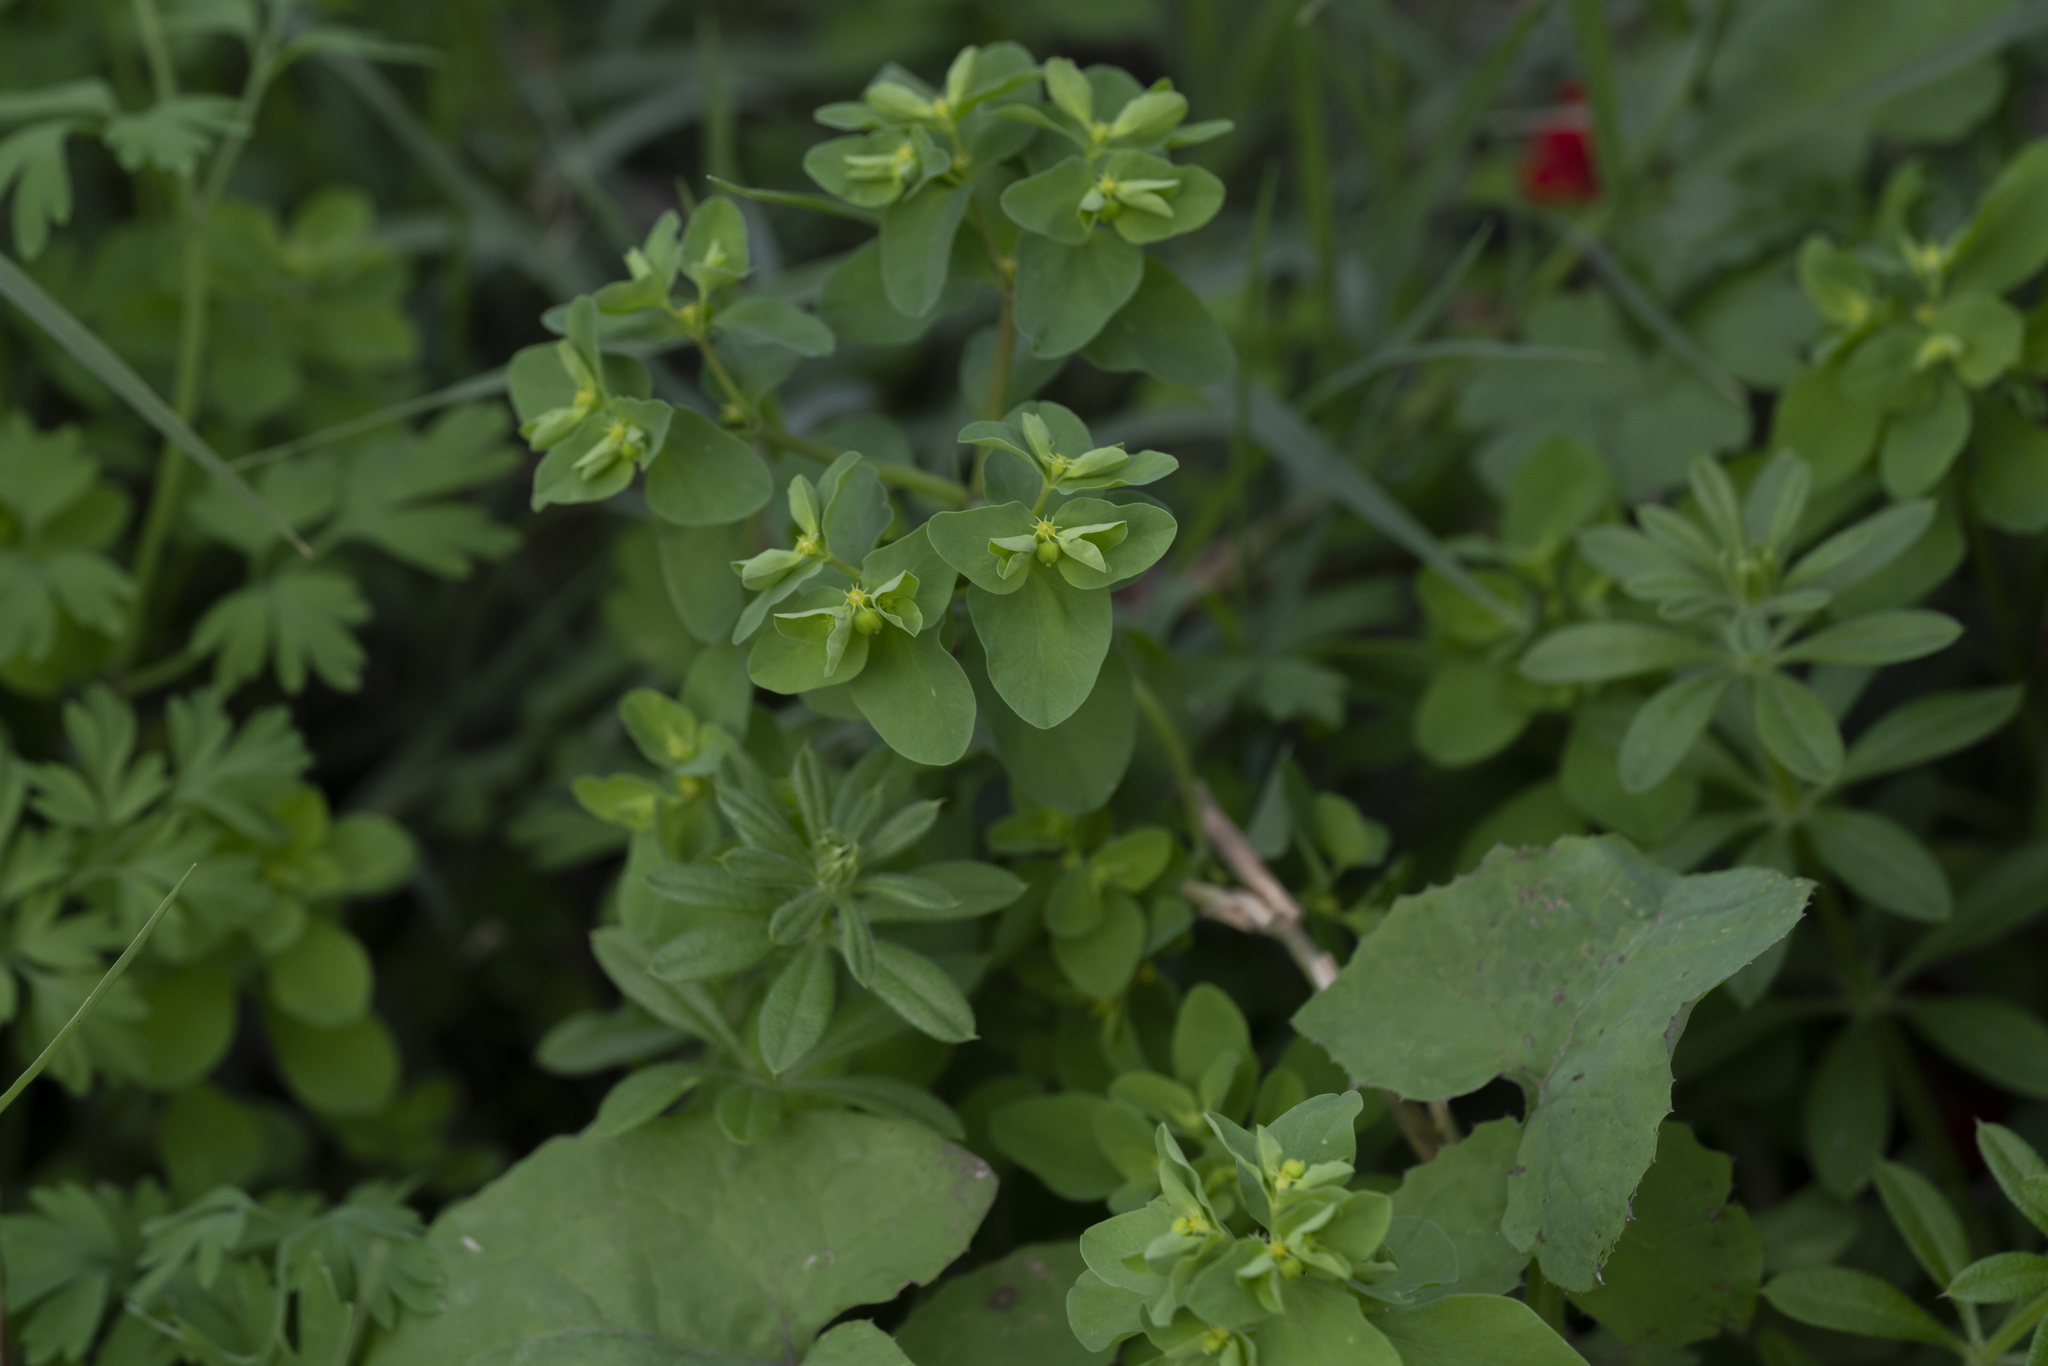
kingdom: Plantae
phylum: Tracheophyta
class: Magnoliopsida
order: Malpighiales
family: Euphorbiaceae
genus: Euphorbia
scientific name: Euphorbia peplus
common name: Petty spurge
